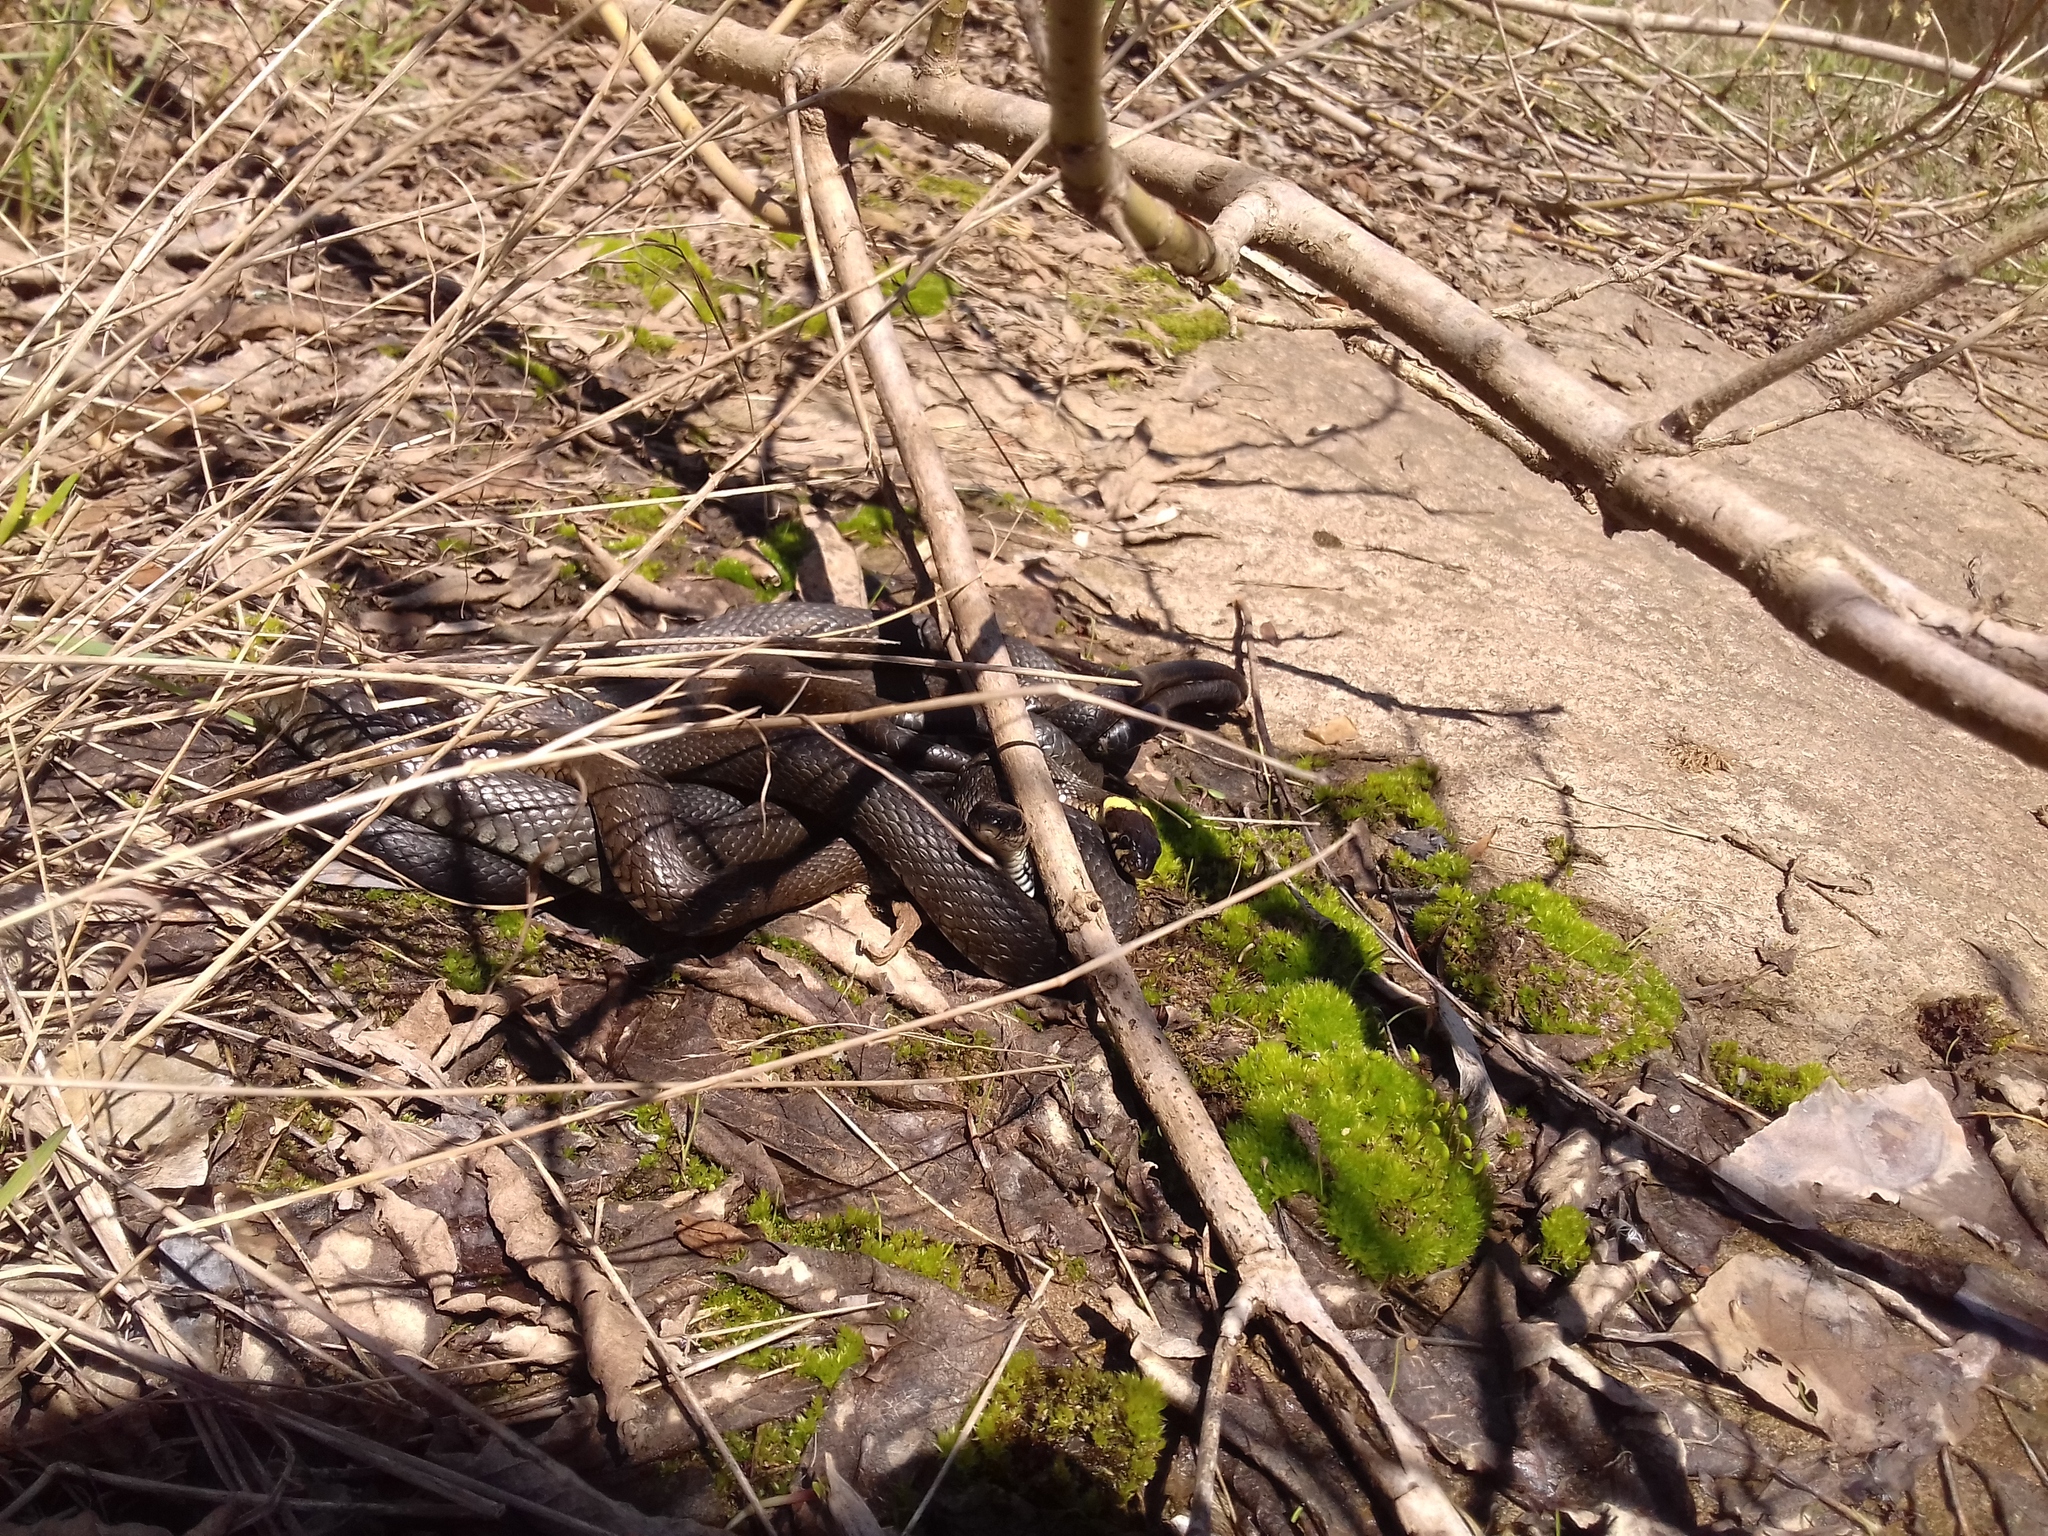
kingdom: Animalia
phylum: Chordata
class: Squamata
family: Colubridae
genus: Natrix
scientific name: Natrix natrix
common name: Grass snake
